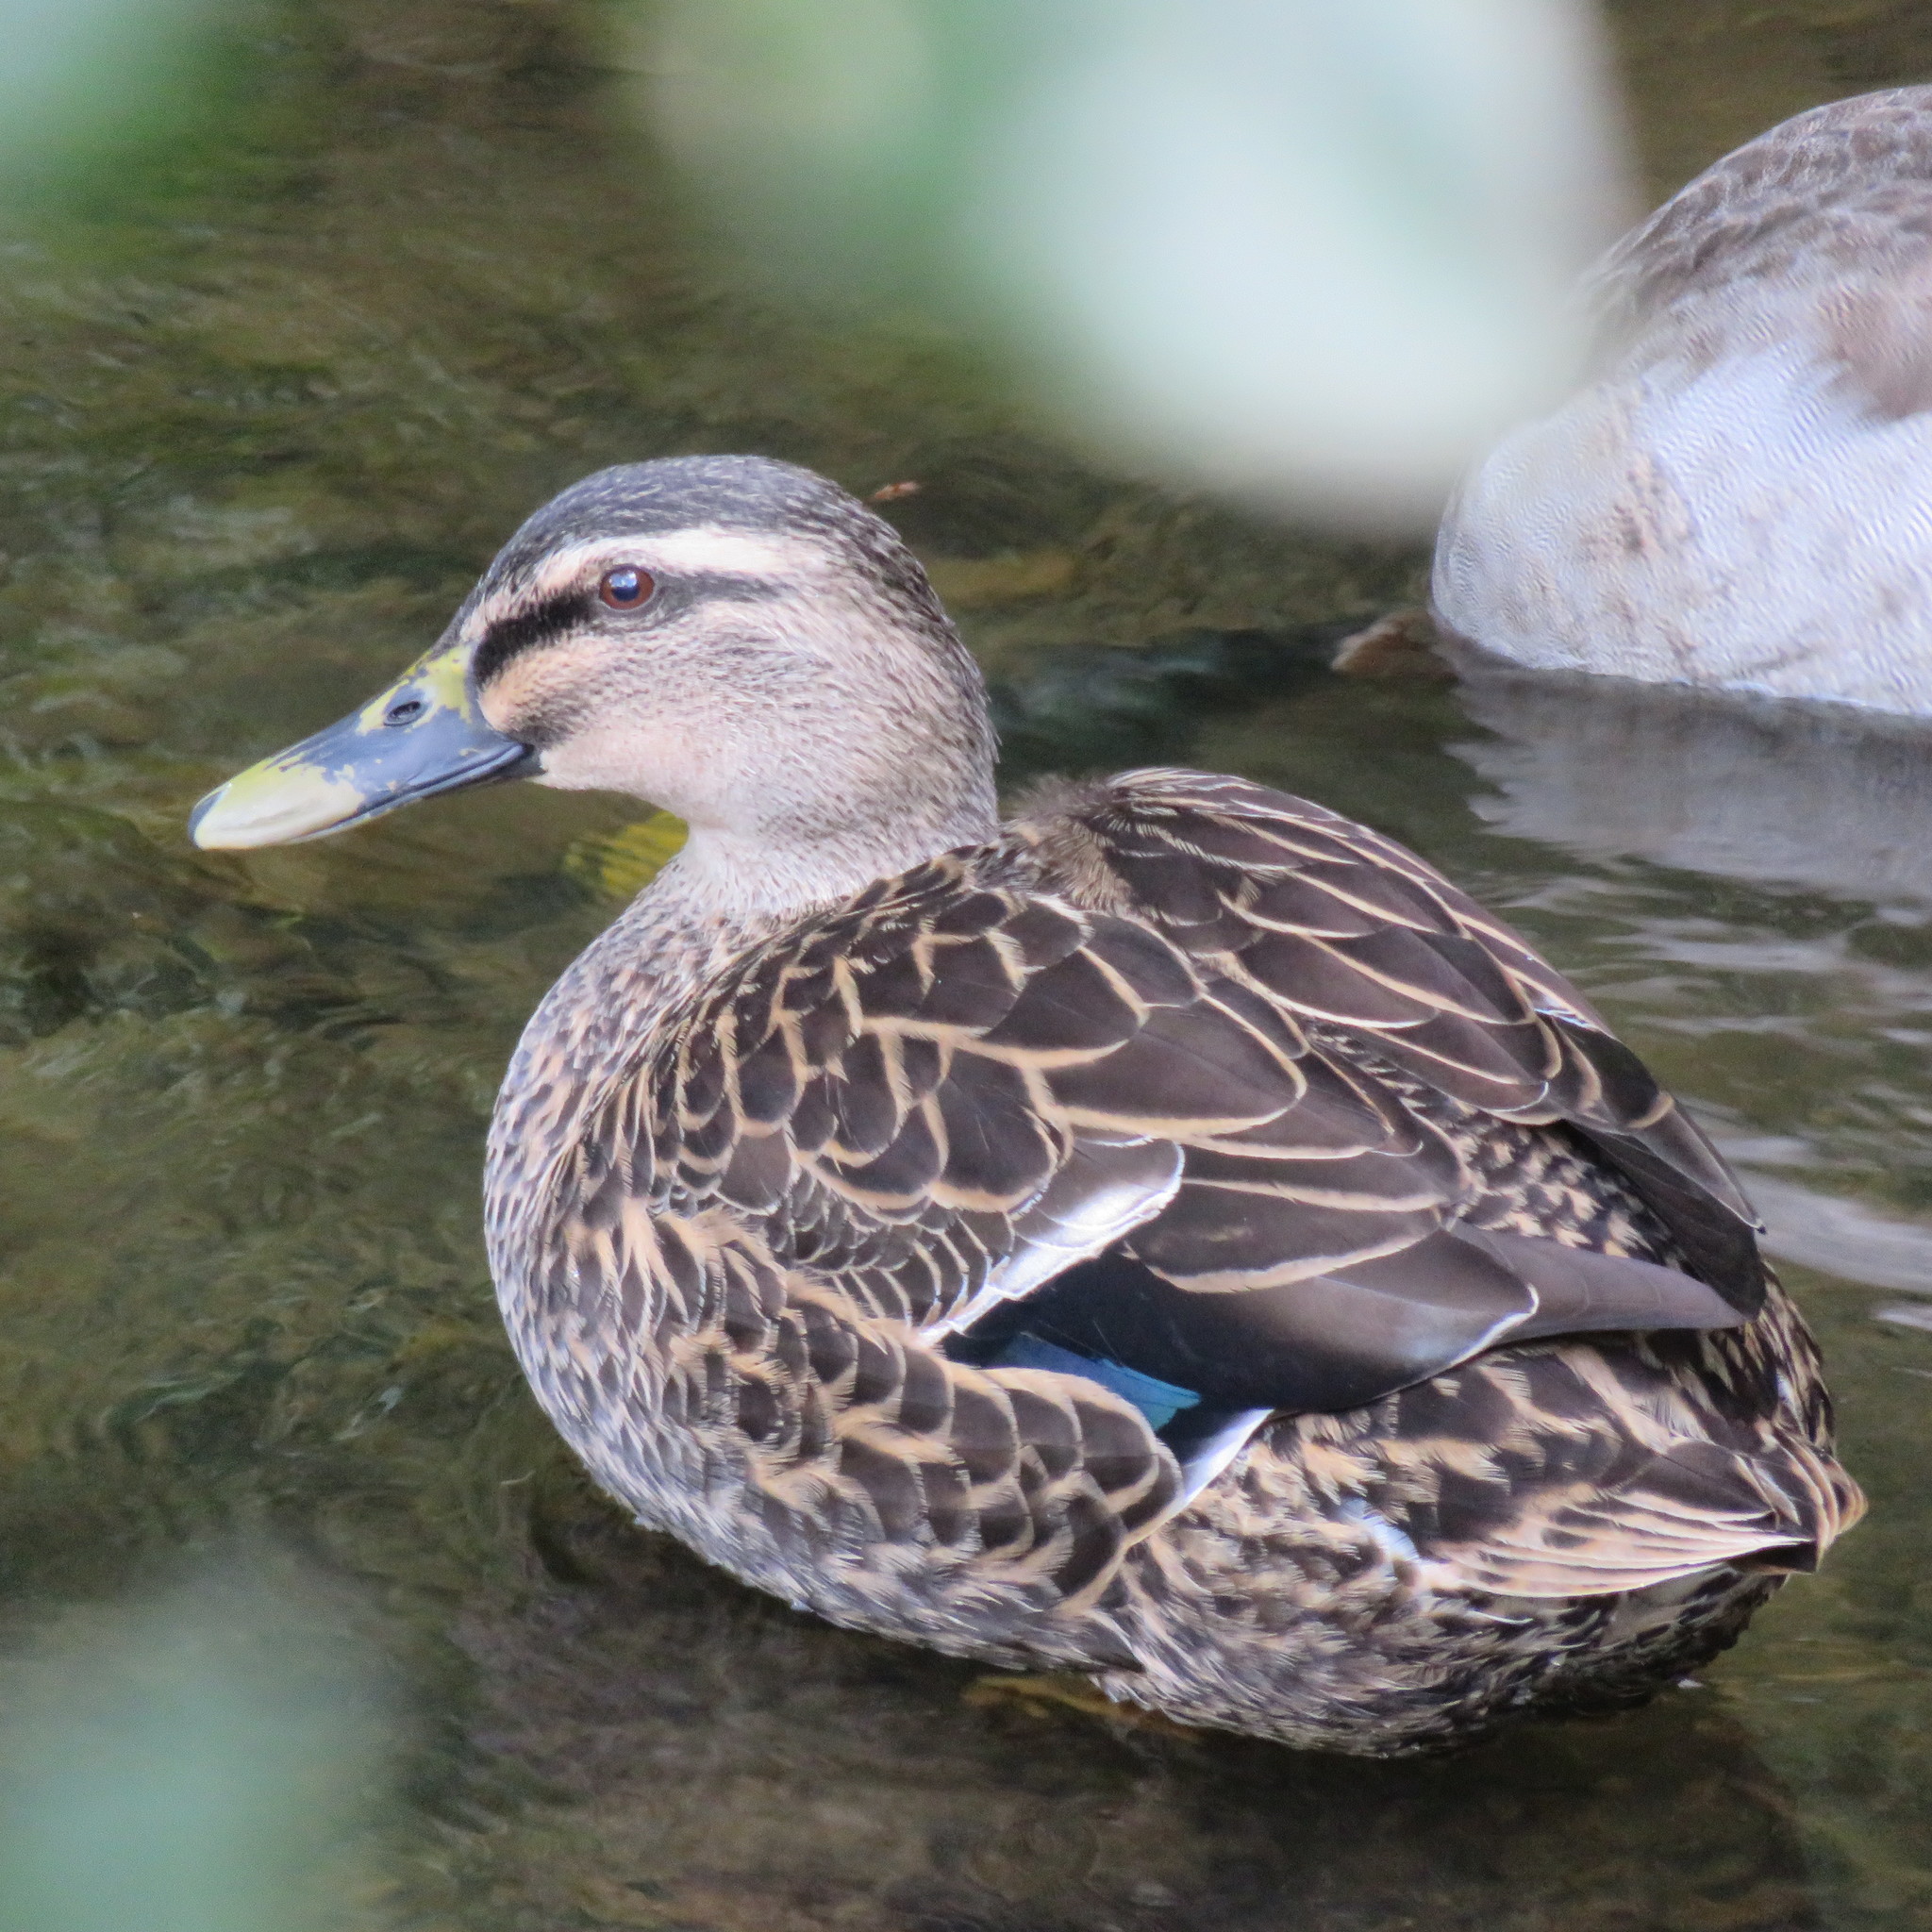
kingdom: Animalia
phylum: Chordata
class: Aves
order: Anseriformes
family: Anatidae
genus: Anas
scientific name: Anas
